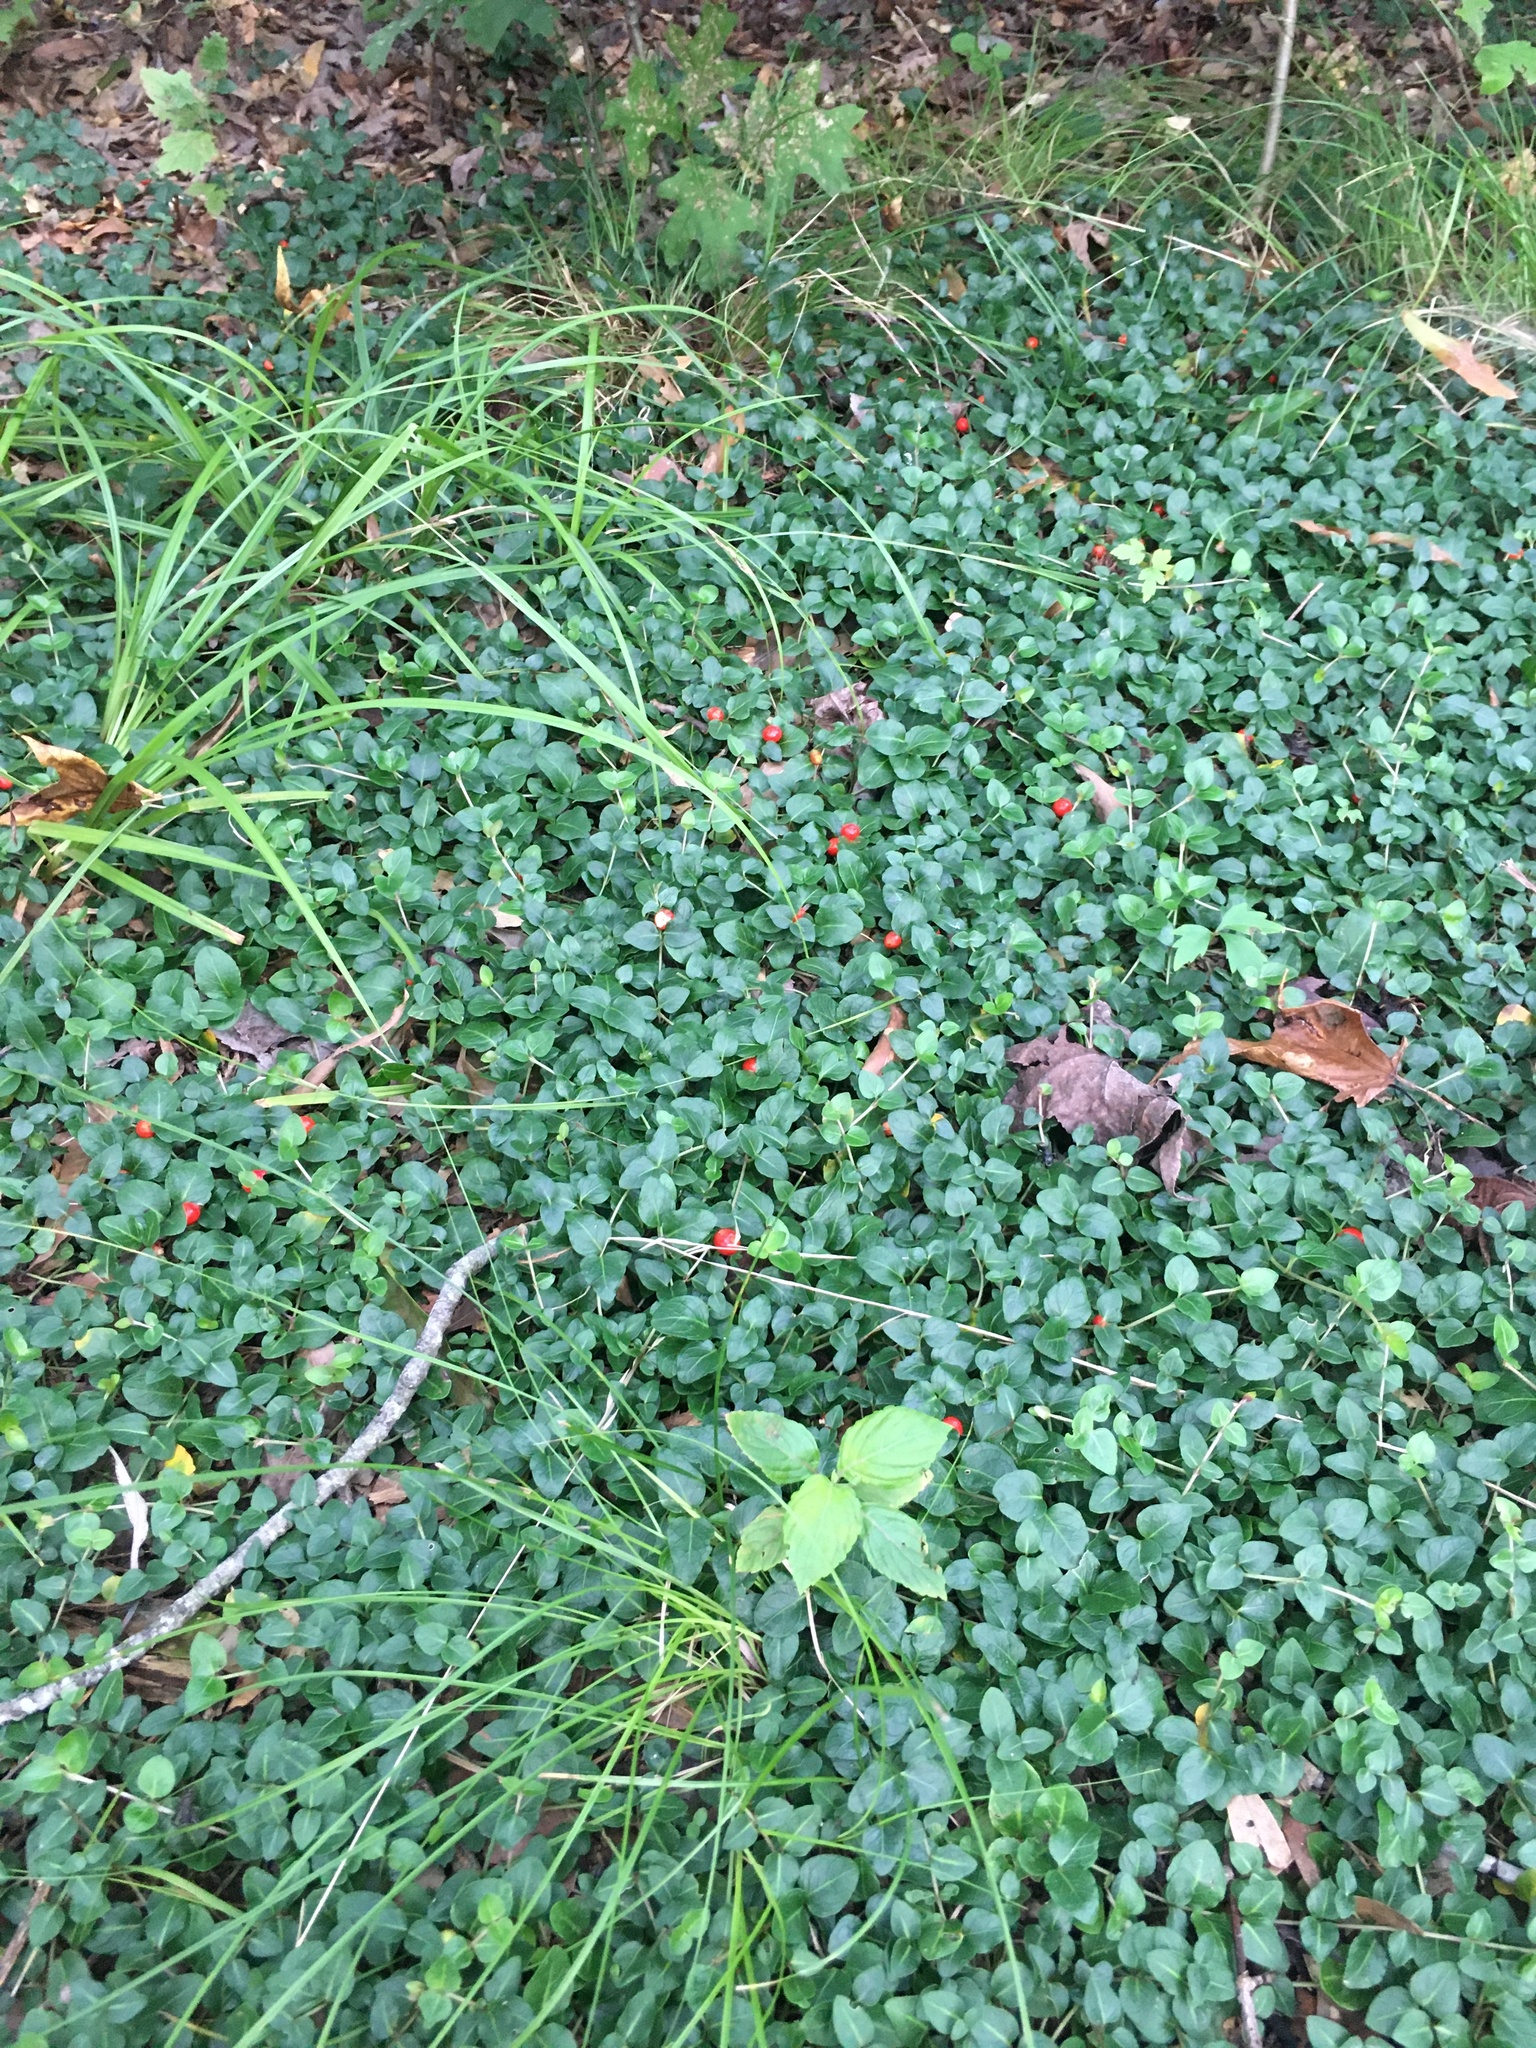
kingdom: Plantae
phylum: Tracheophyta
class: Magnoliopsida
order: Gentianales
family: Rubiaceae
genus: Mitchella
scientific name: Mitchella repens
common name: Partridge-berry
